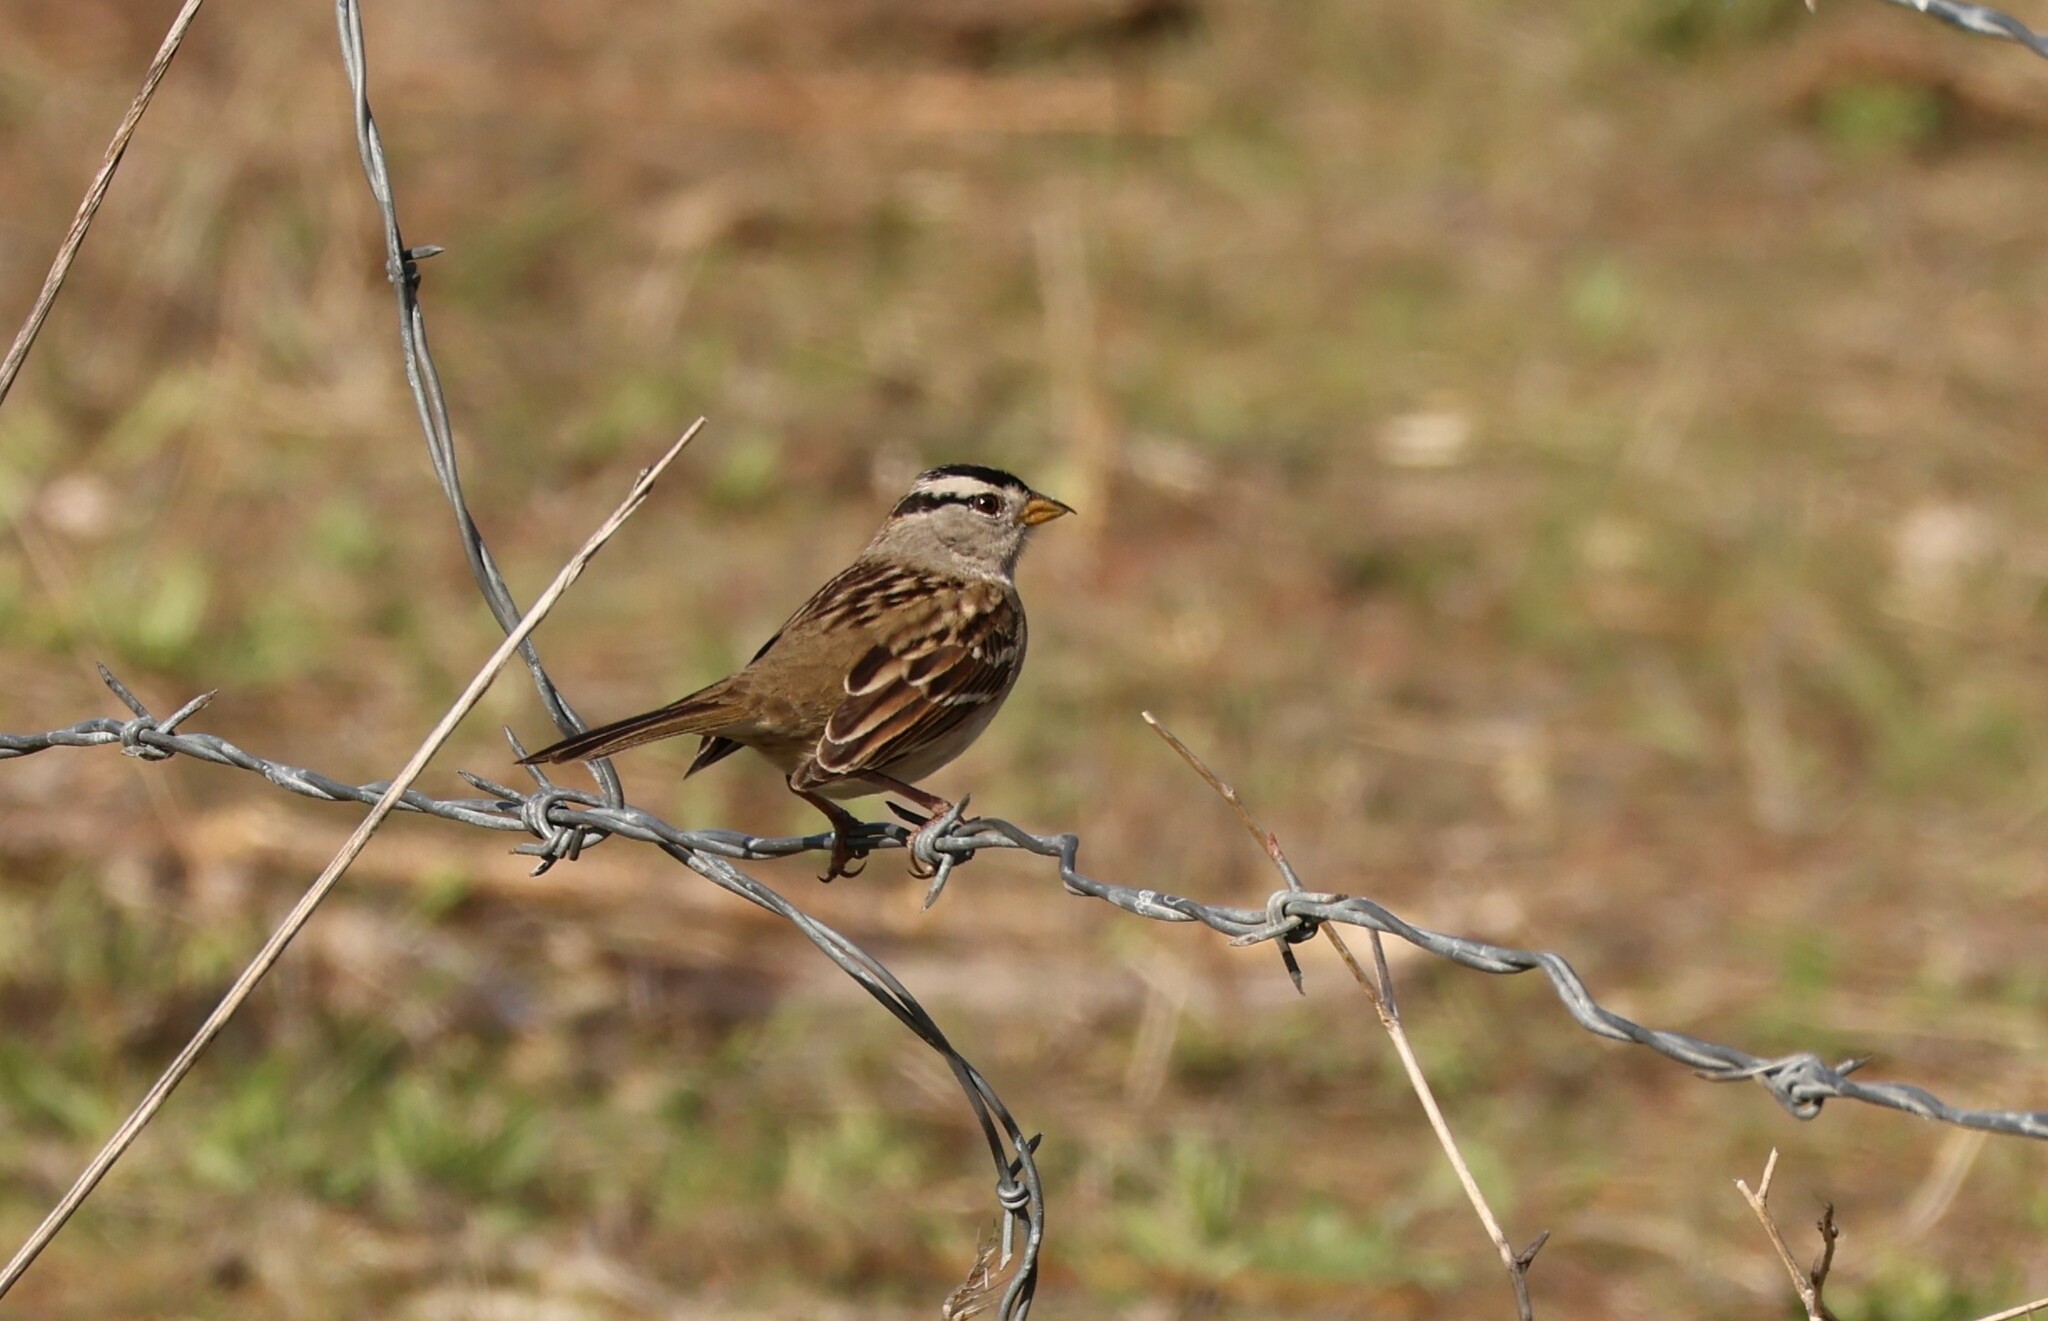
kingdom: Animalia
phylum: Chordata
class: Aves
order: Passeriformes
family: Passerellidae
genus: Zonotrichia
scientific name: Zonotrichia leucophrys
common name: White-crowned sparrow
